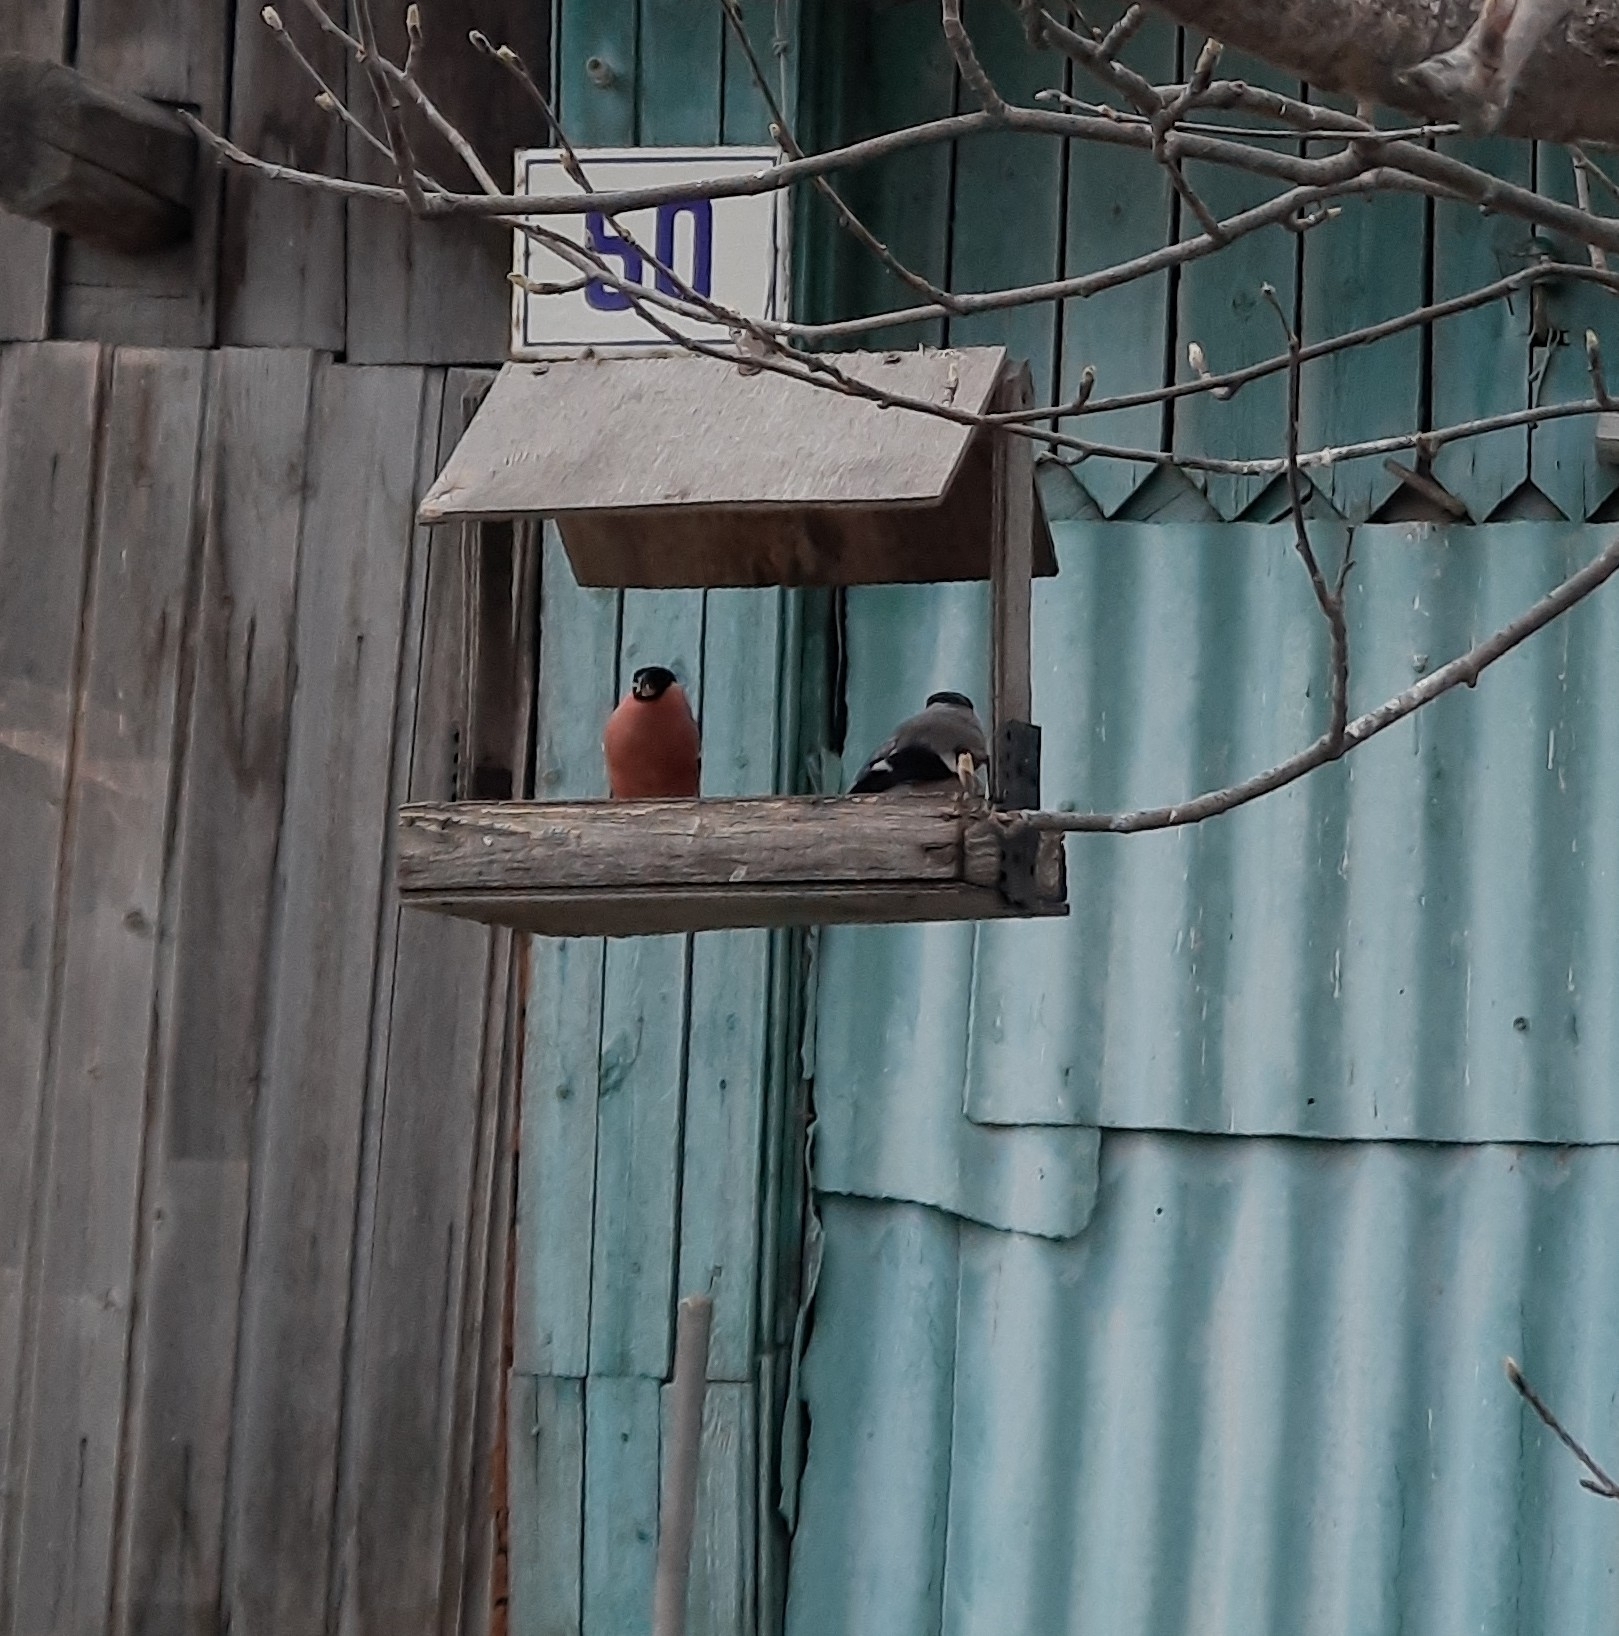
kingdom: Animalia
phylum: Chordata
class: Aves
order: Passeriformes
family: Fringillidae
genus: Pyrrhula
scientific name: Pyrrhula pyrrhula
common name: Eurasian bullfinch
